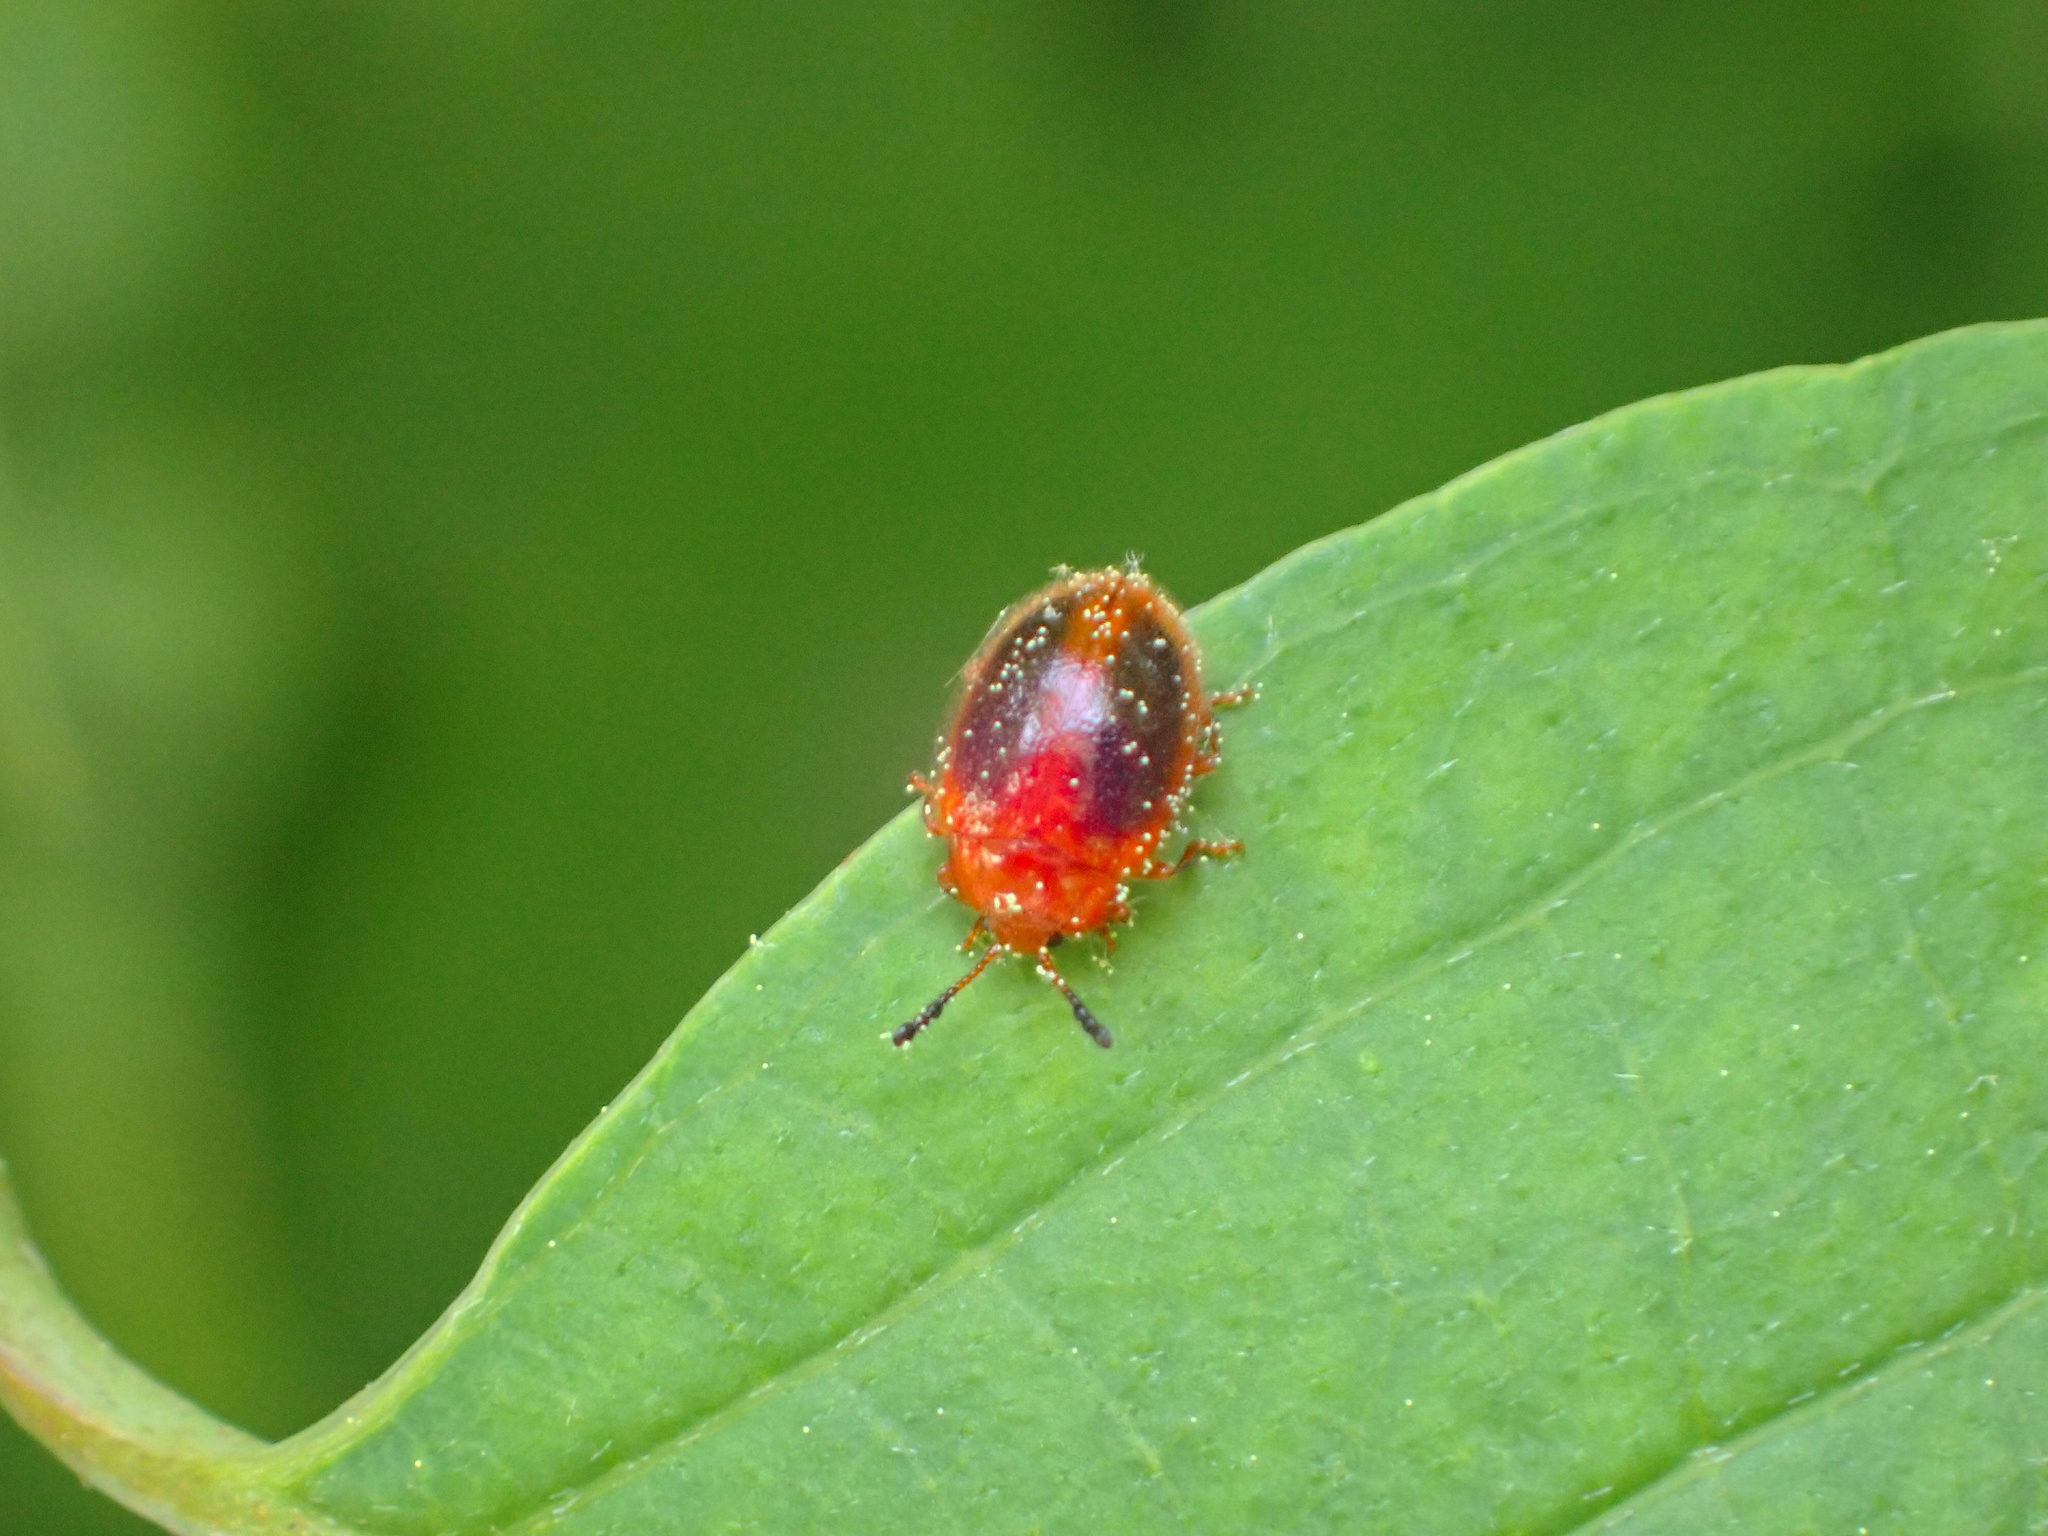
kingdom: Animalia
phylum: Arthropoda
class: Insecta
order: Coleoptera
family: Endomychidae
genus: Stenotarsus
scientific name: Stenotarsus hispidus
